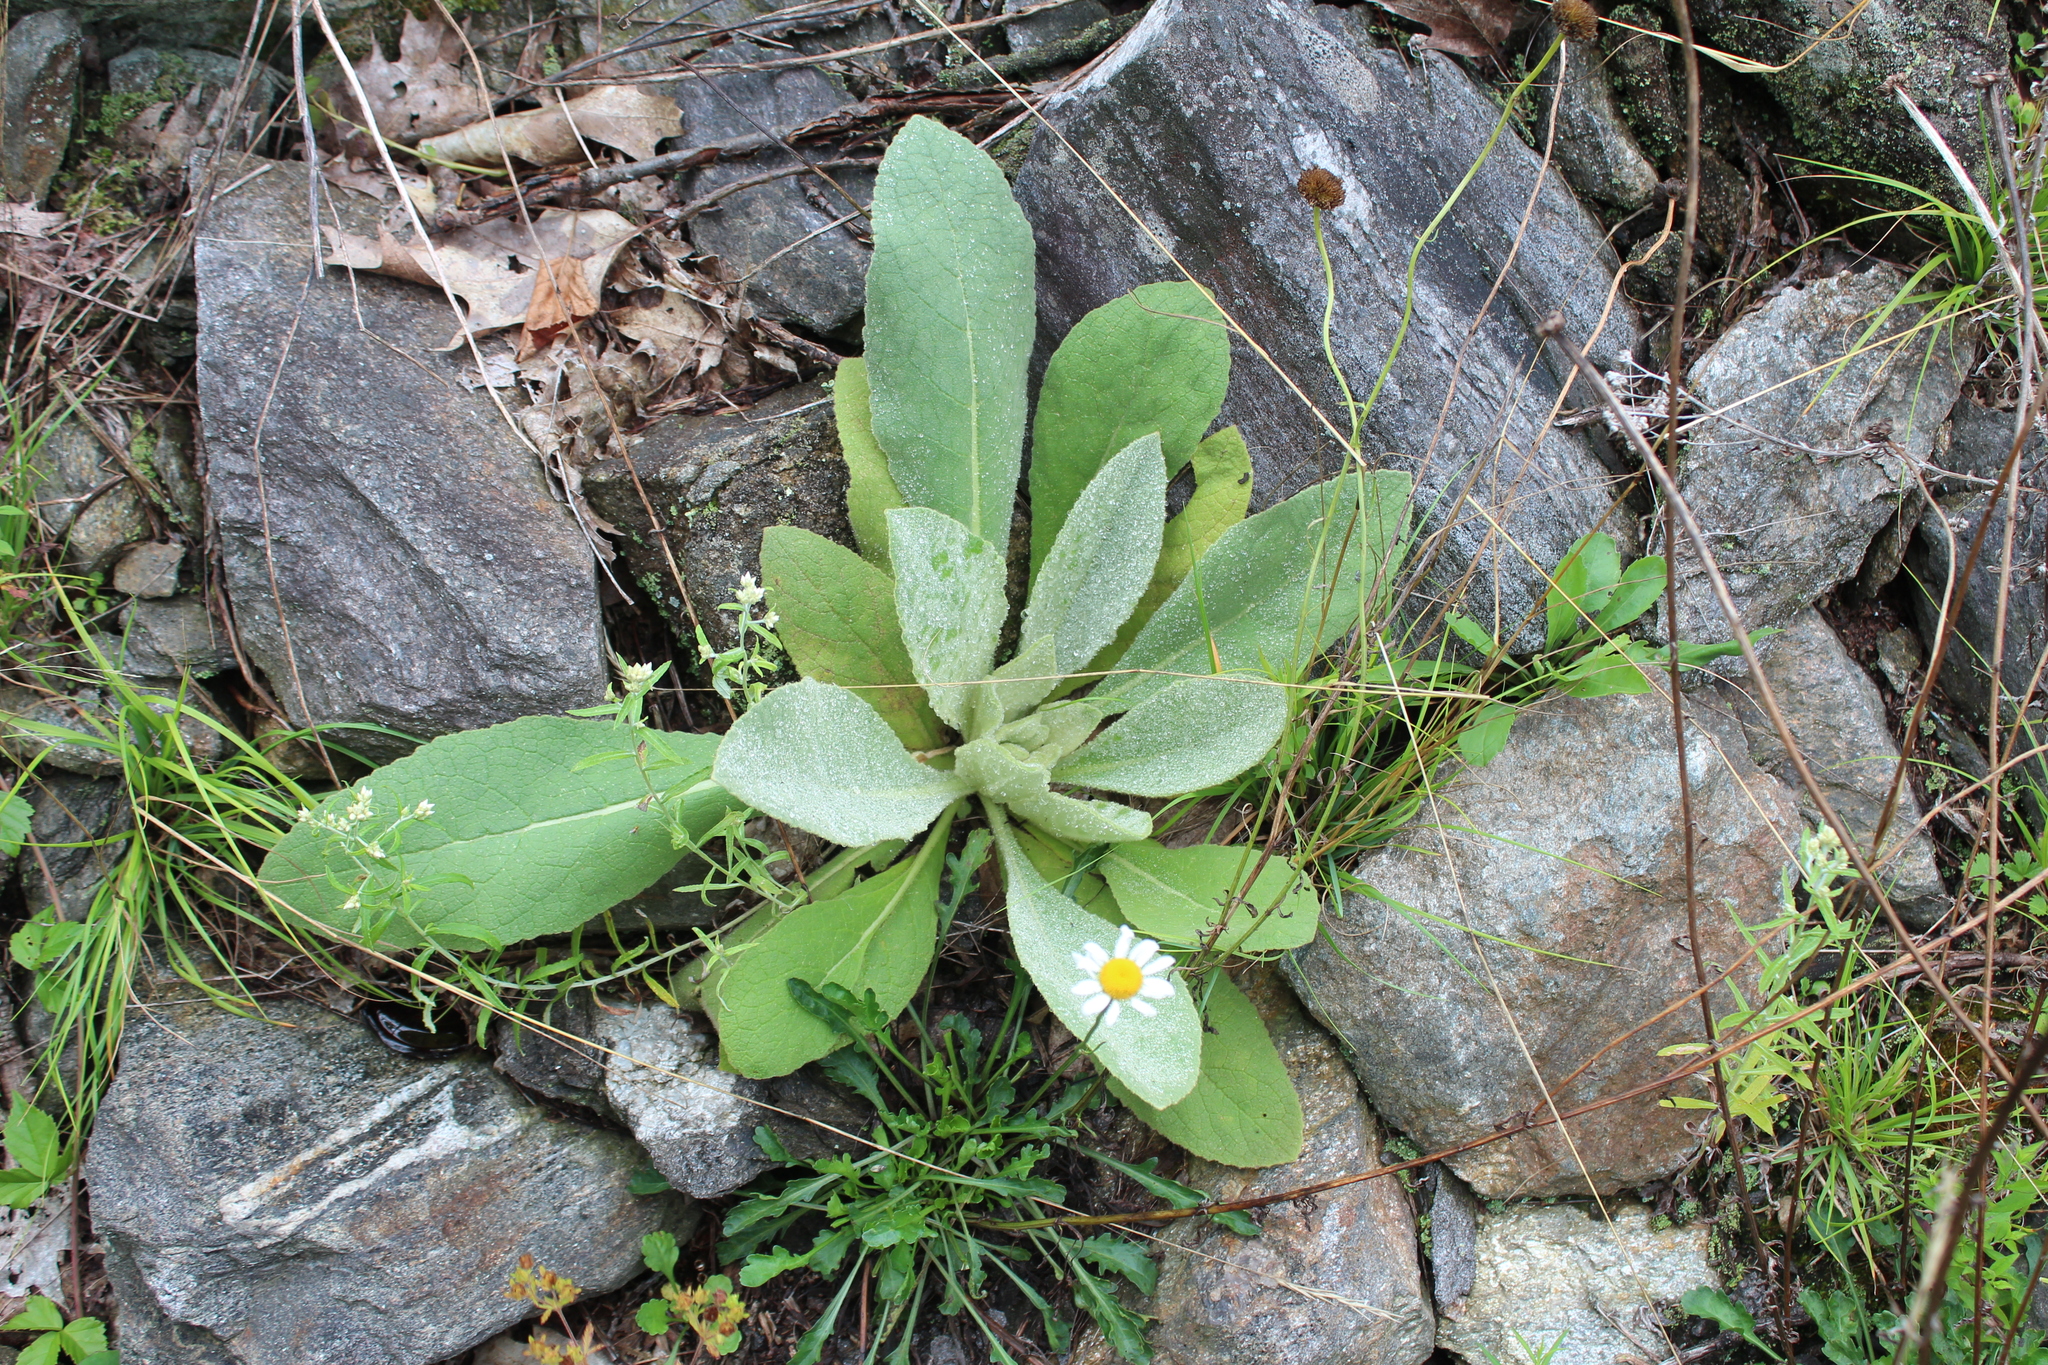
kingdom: Plantae
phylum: Tracheophyta
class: Magnoliopsida
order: Lamiales
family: Scrophulariaceae
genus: Verbascum
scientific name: Verbascum thapsus
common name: Common mullein
